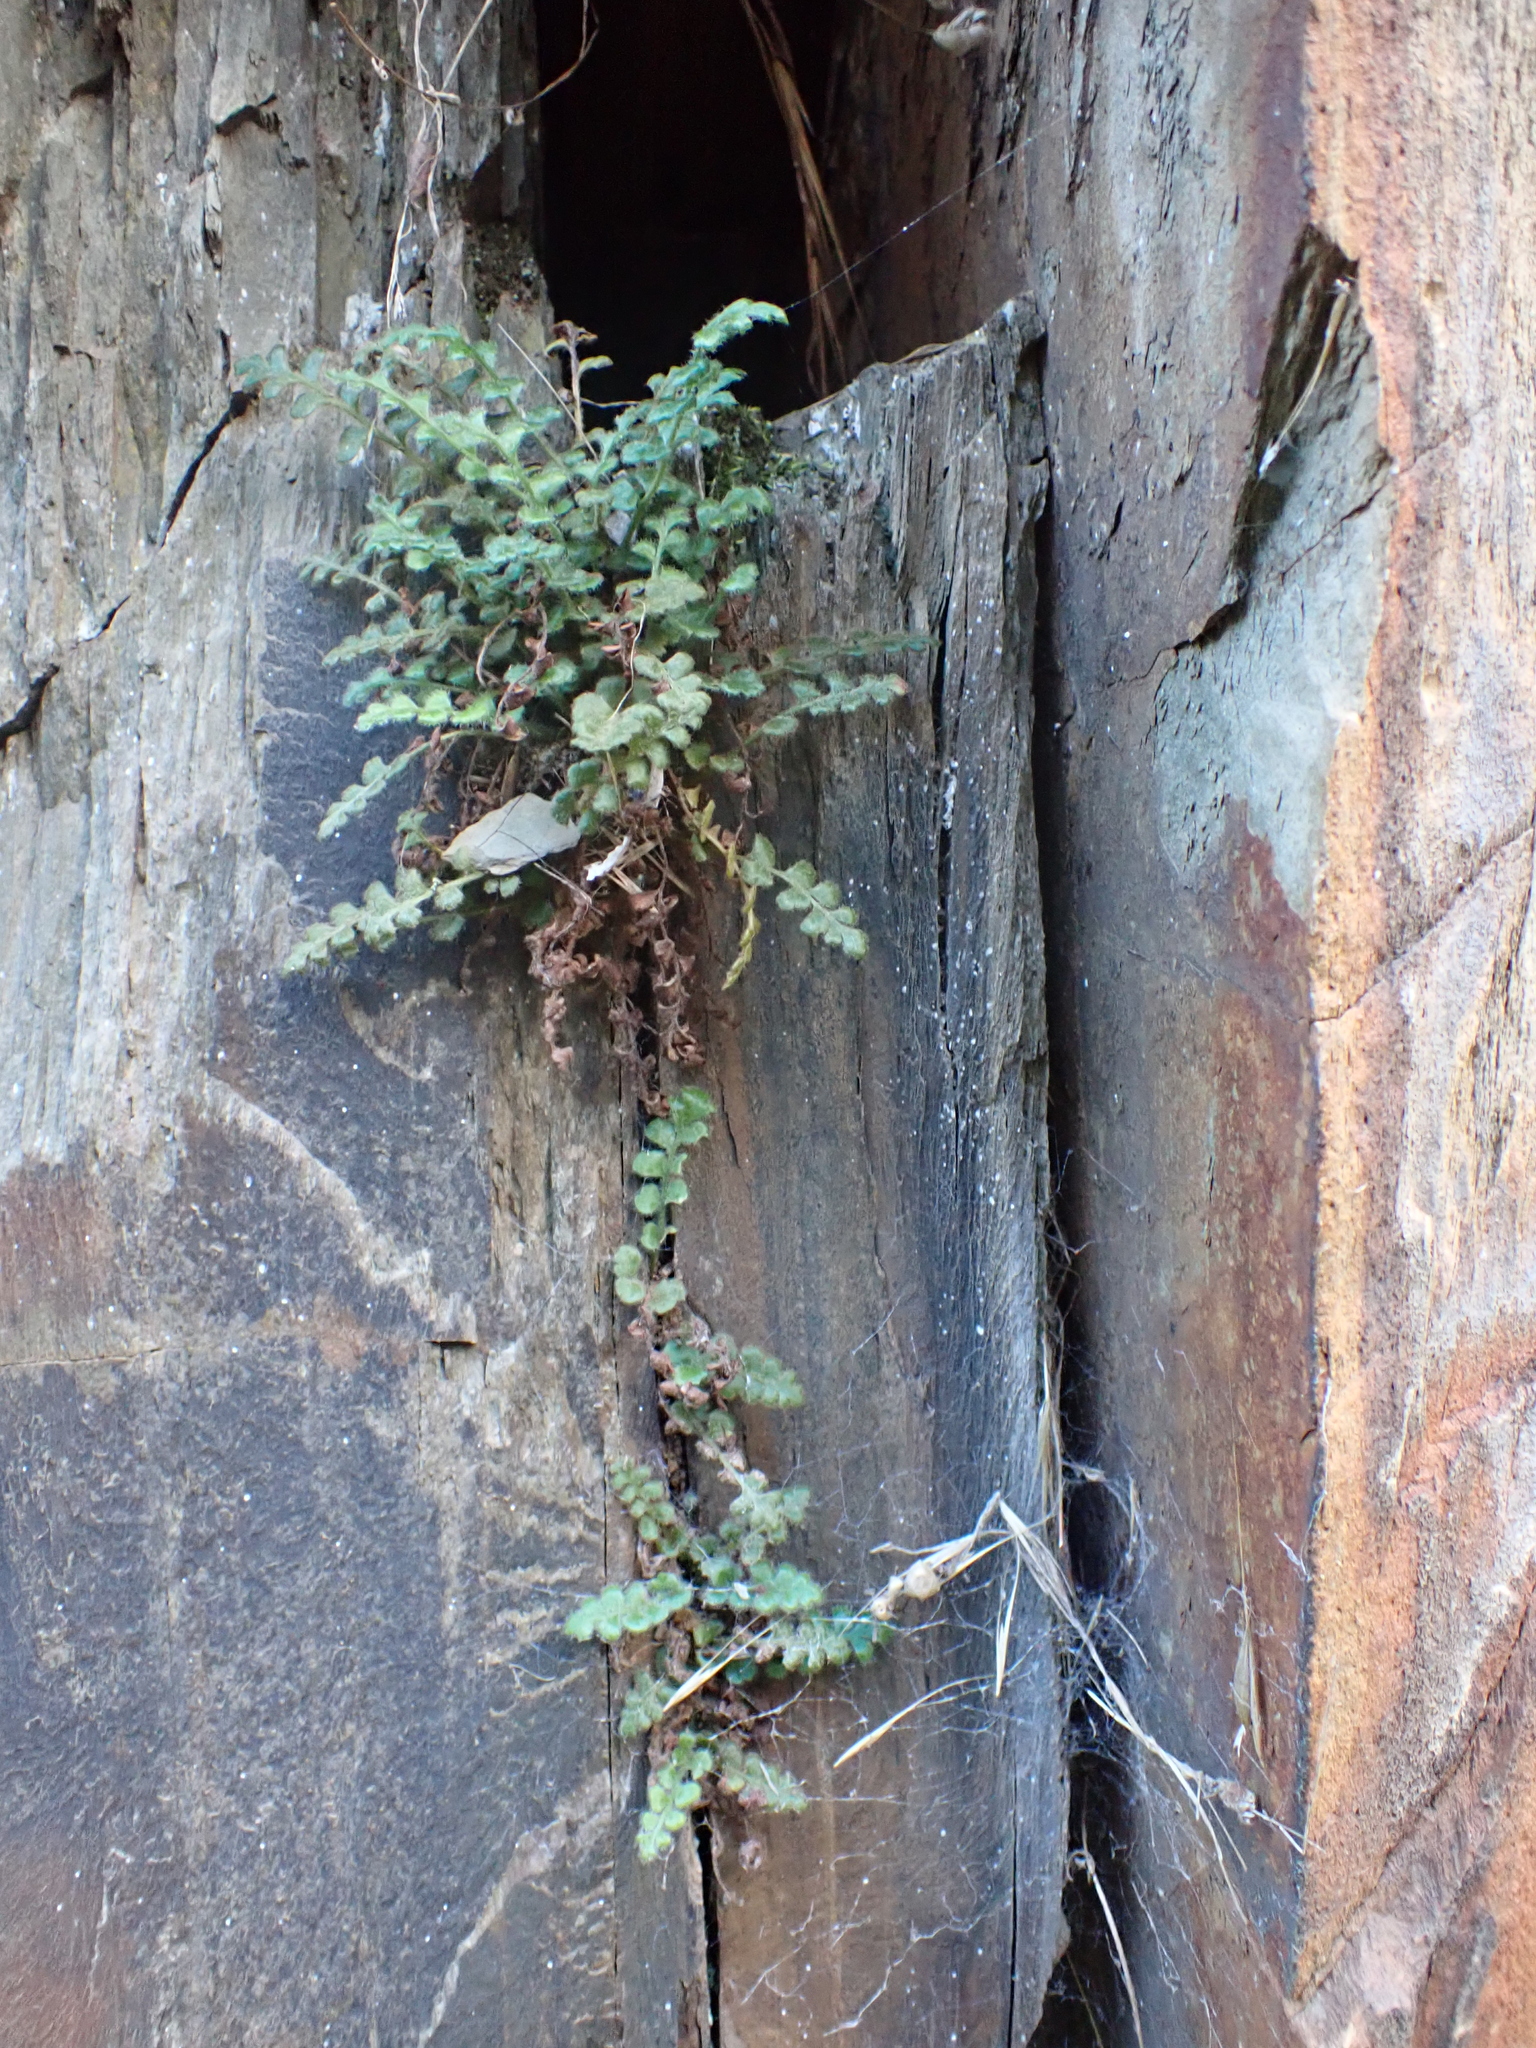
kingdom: Plantae
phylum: Tracheophyta
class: Polypodiopsida
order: Polypodiales
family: Aspleniaceae
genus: Asplenium
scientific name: Asplenium subglandulosum
